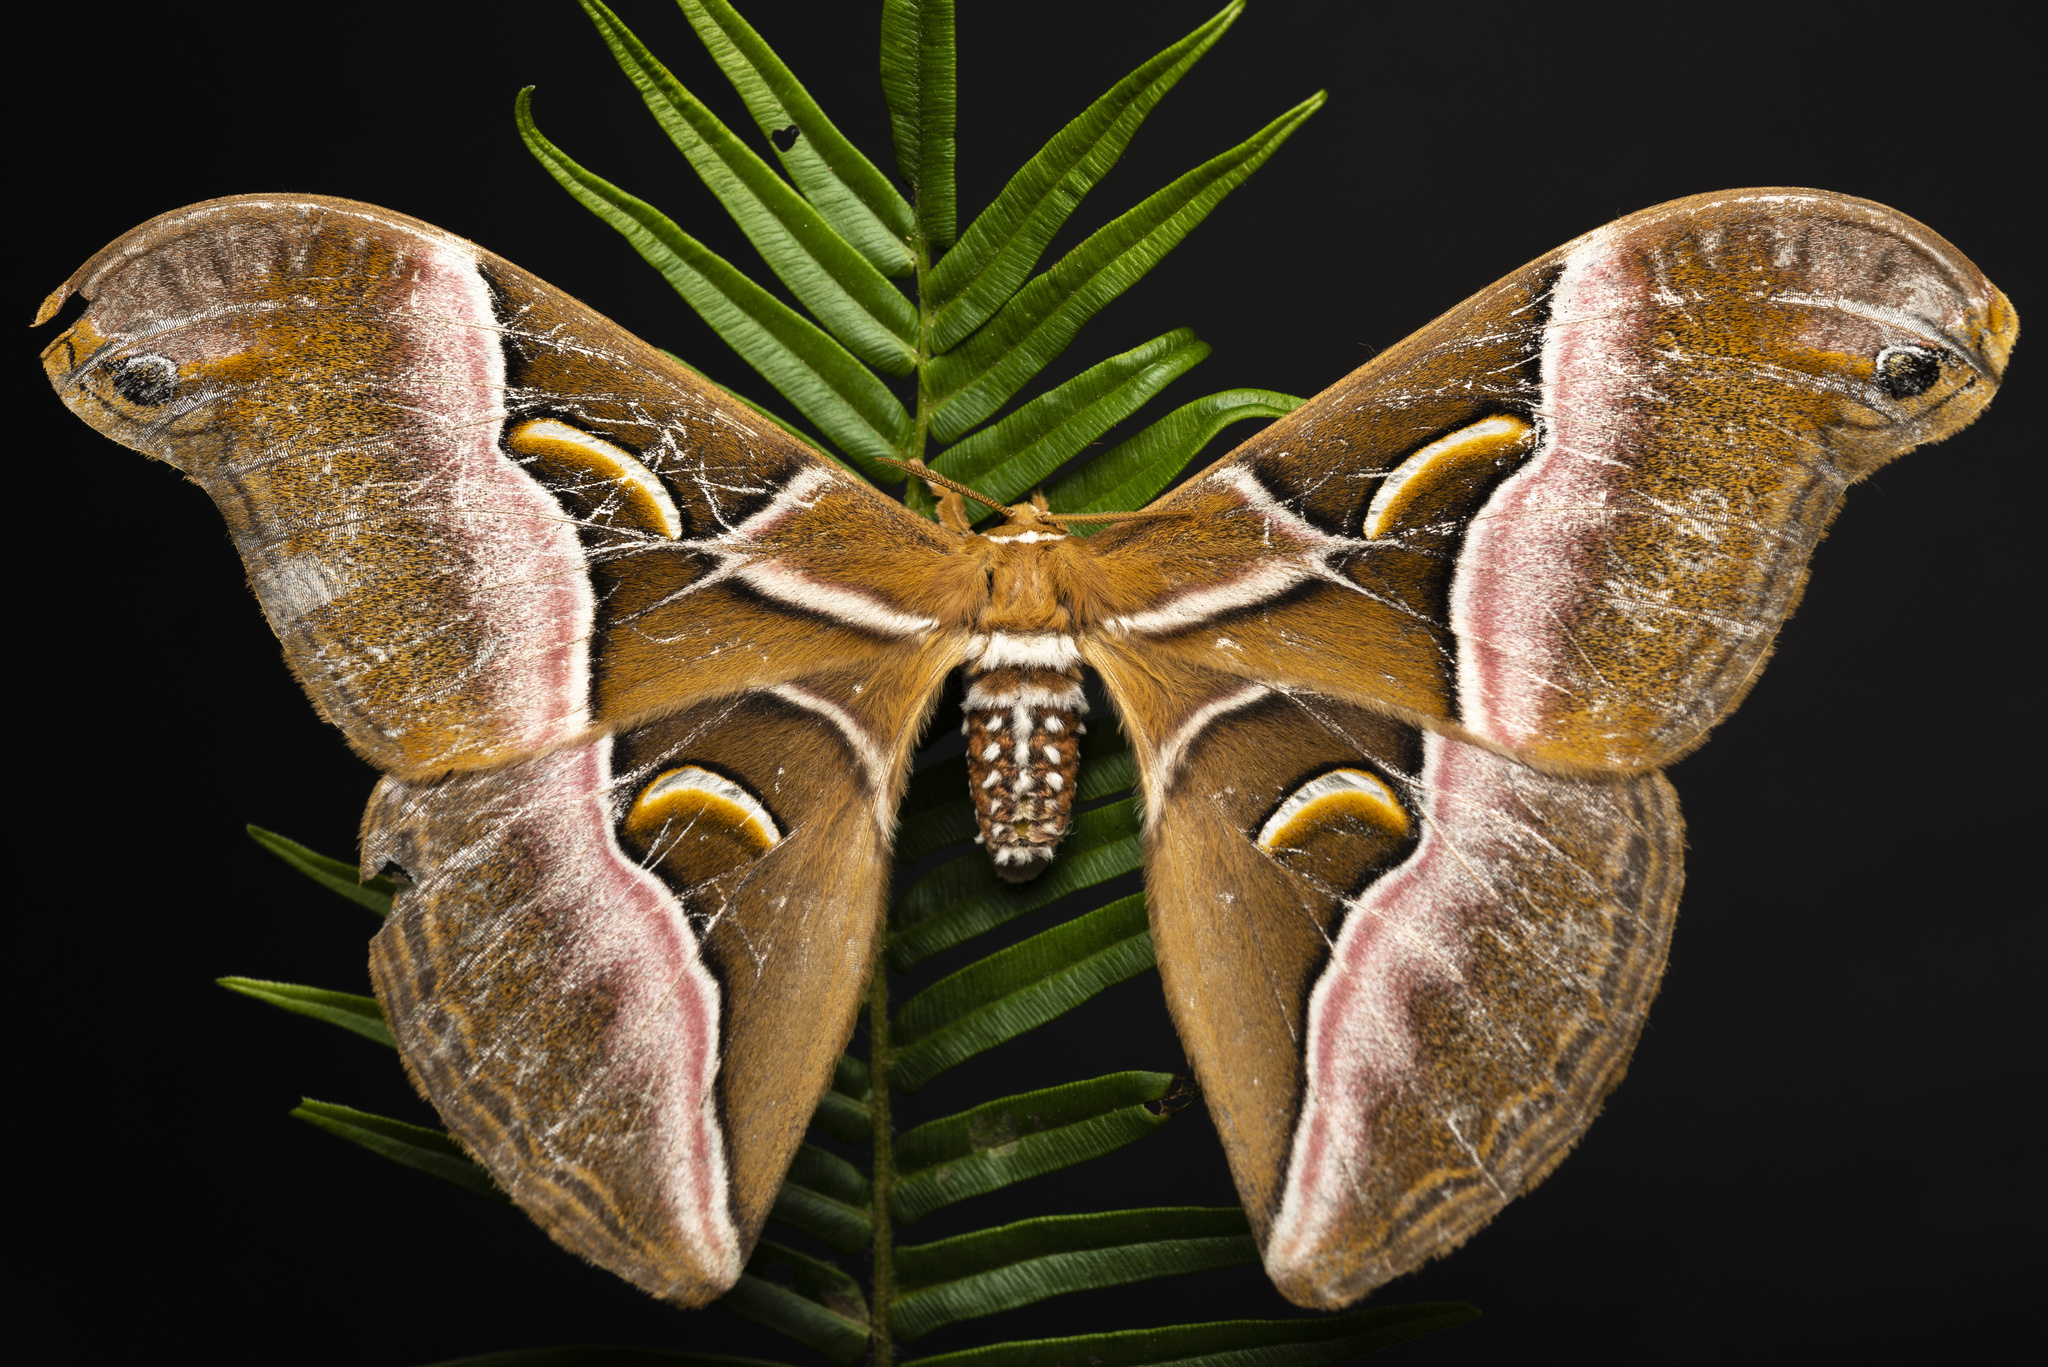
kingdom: Animalia
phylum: Arthropoda
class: Insecta
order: Lepidoptera
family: Saturniidae
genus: Samia
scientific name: Samia wangi
